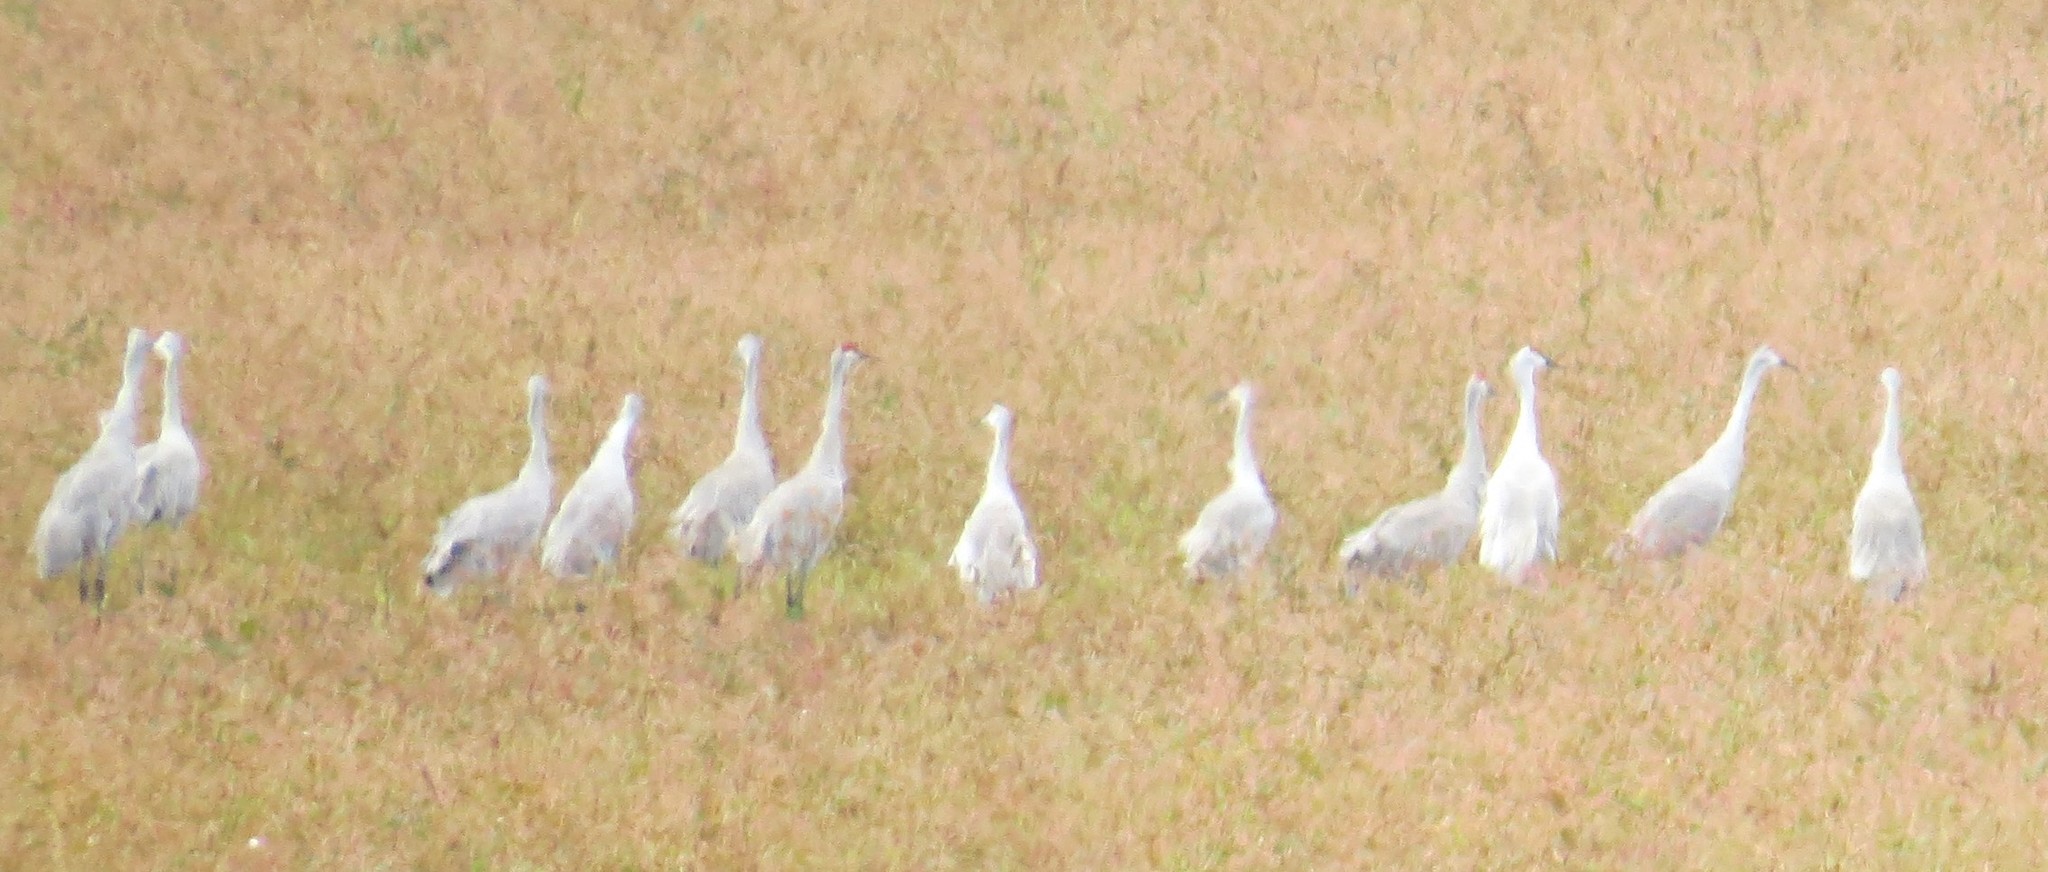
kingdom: Animalia
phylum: Chordata
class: Aves
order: Gruiformes
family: Gruidae
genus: Grus
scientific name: Grus canadensis
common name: Sandhill crane
